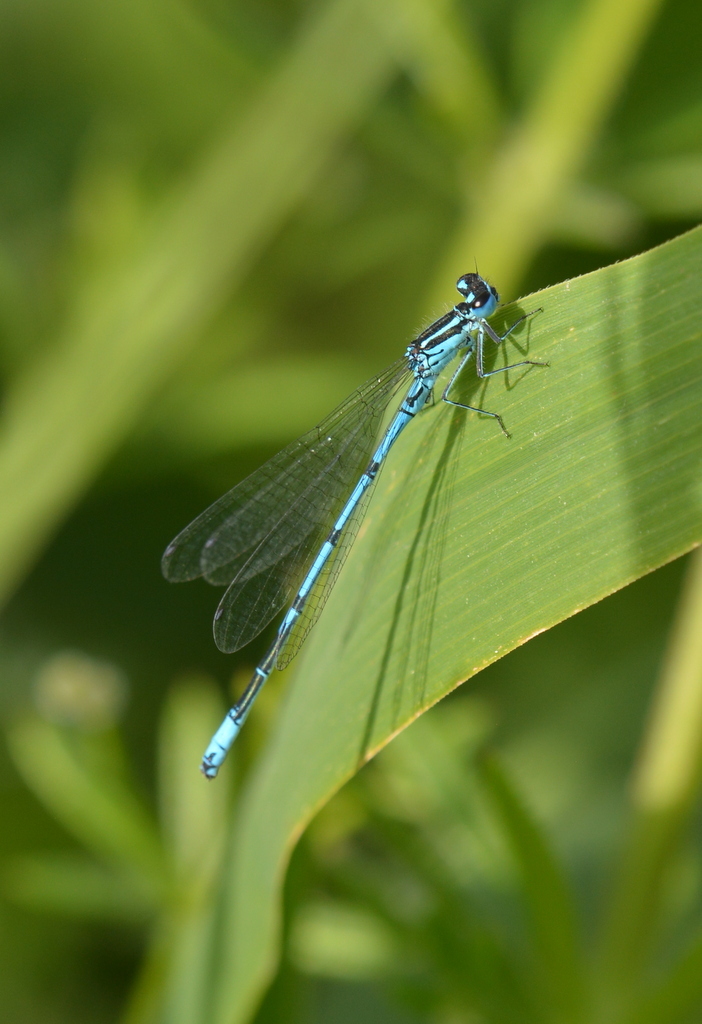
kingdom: Animalia
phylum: Arthropoda
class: Insecta
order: Odonata
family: Coenagrionidae
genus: Coenagrion
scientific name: Coenagrion puella
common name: Azure damselfly
